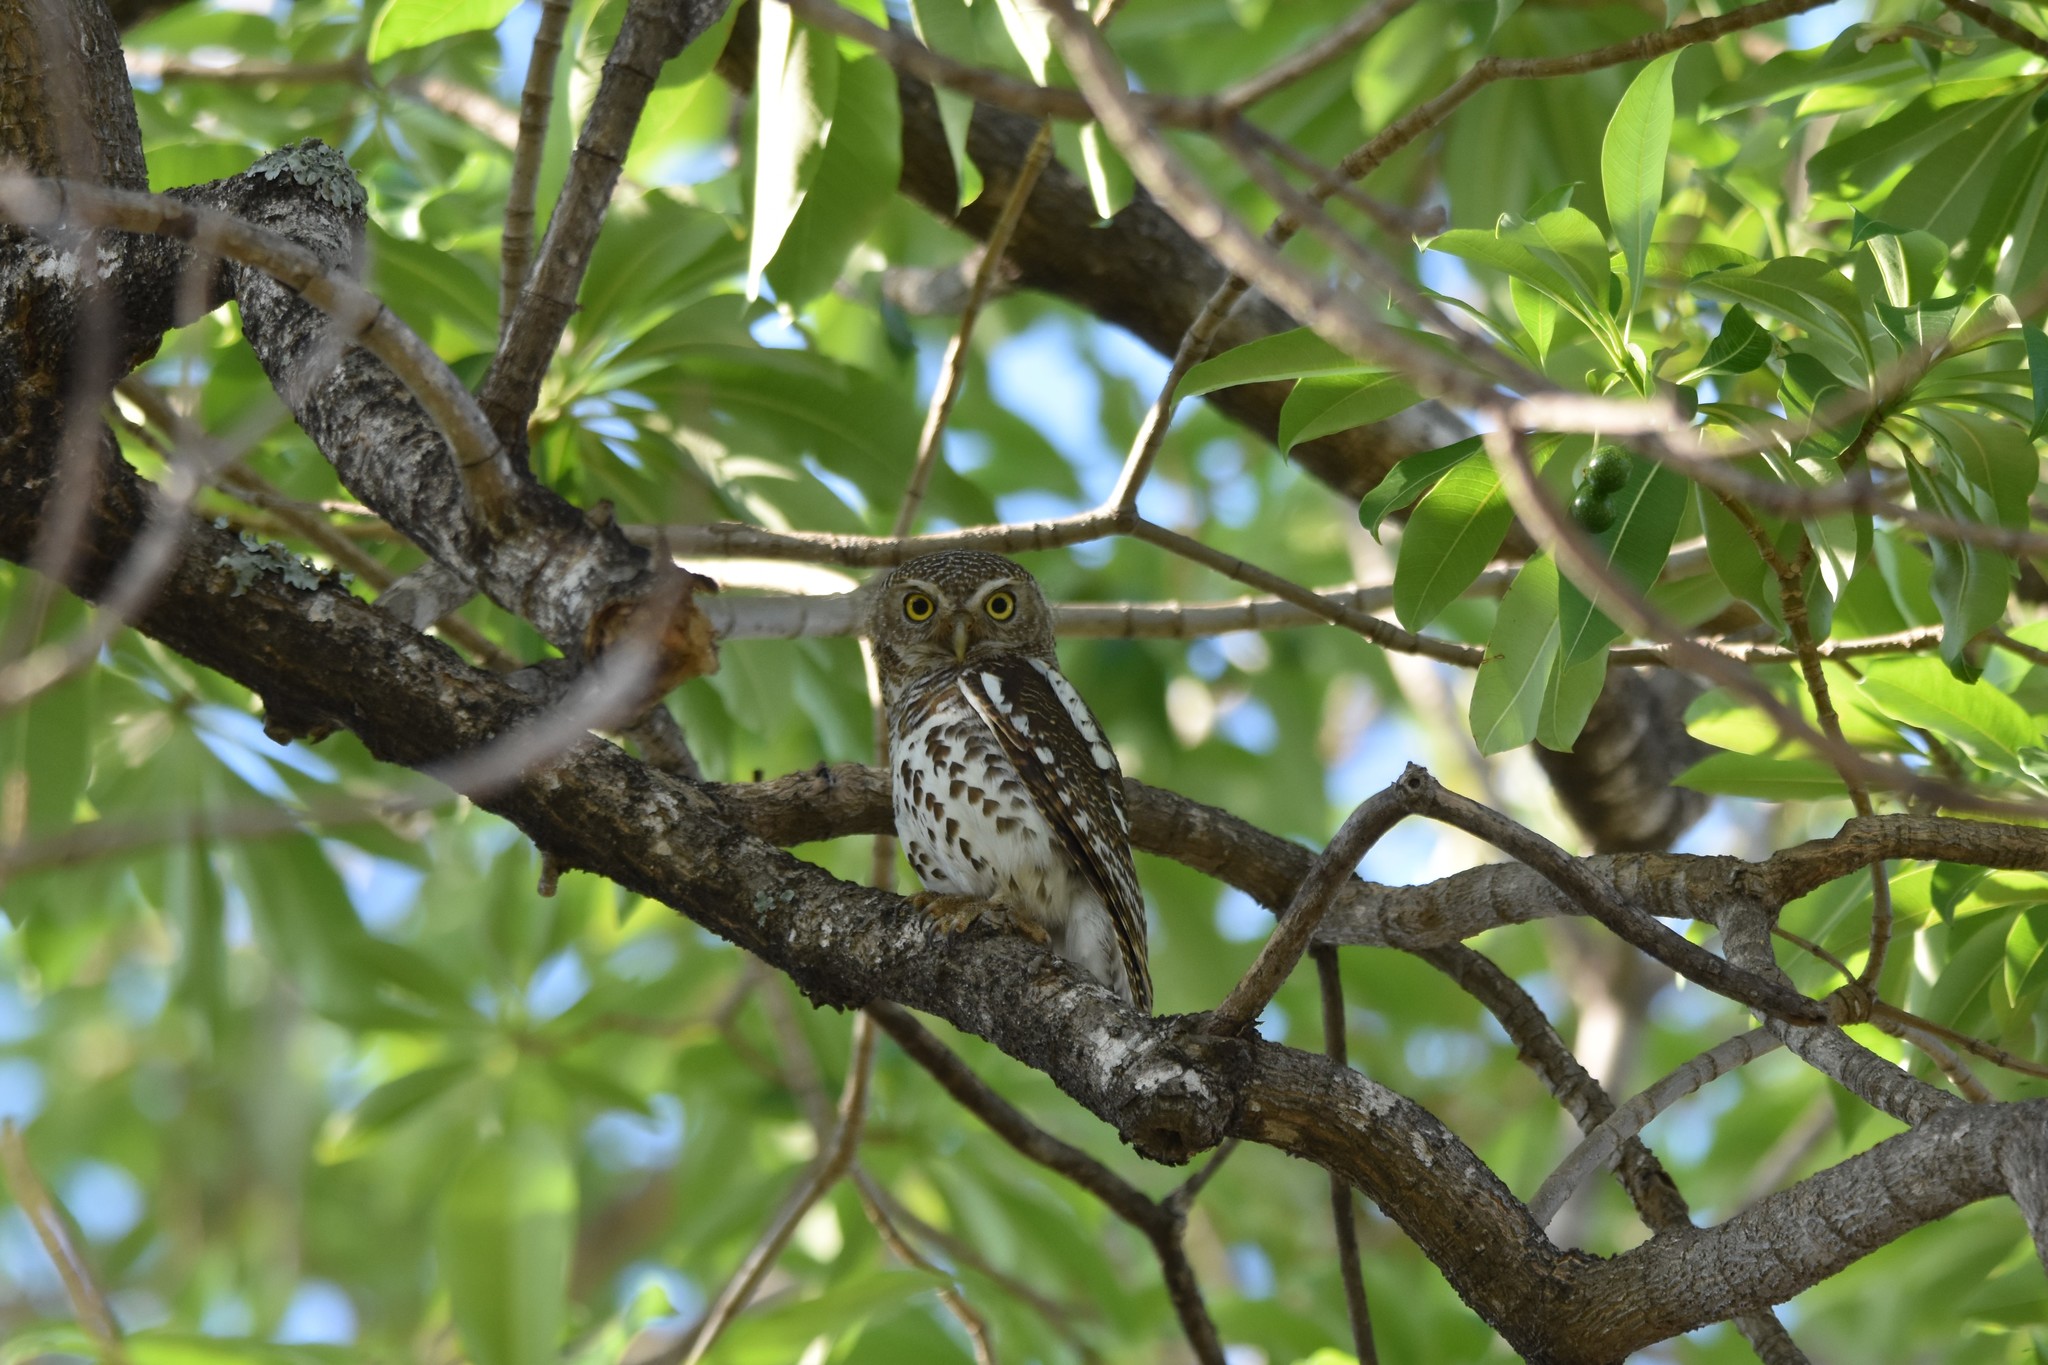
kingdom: Animalia
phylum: Chordata
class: Aves
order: Strigiformes
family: Strigidae
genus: Glaucidium
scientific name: Glaucidium capense
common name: African barred owlet
